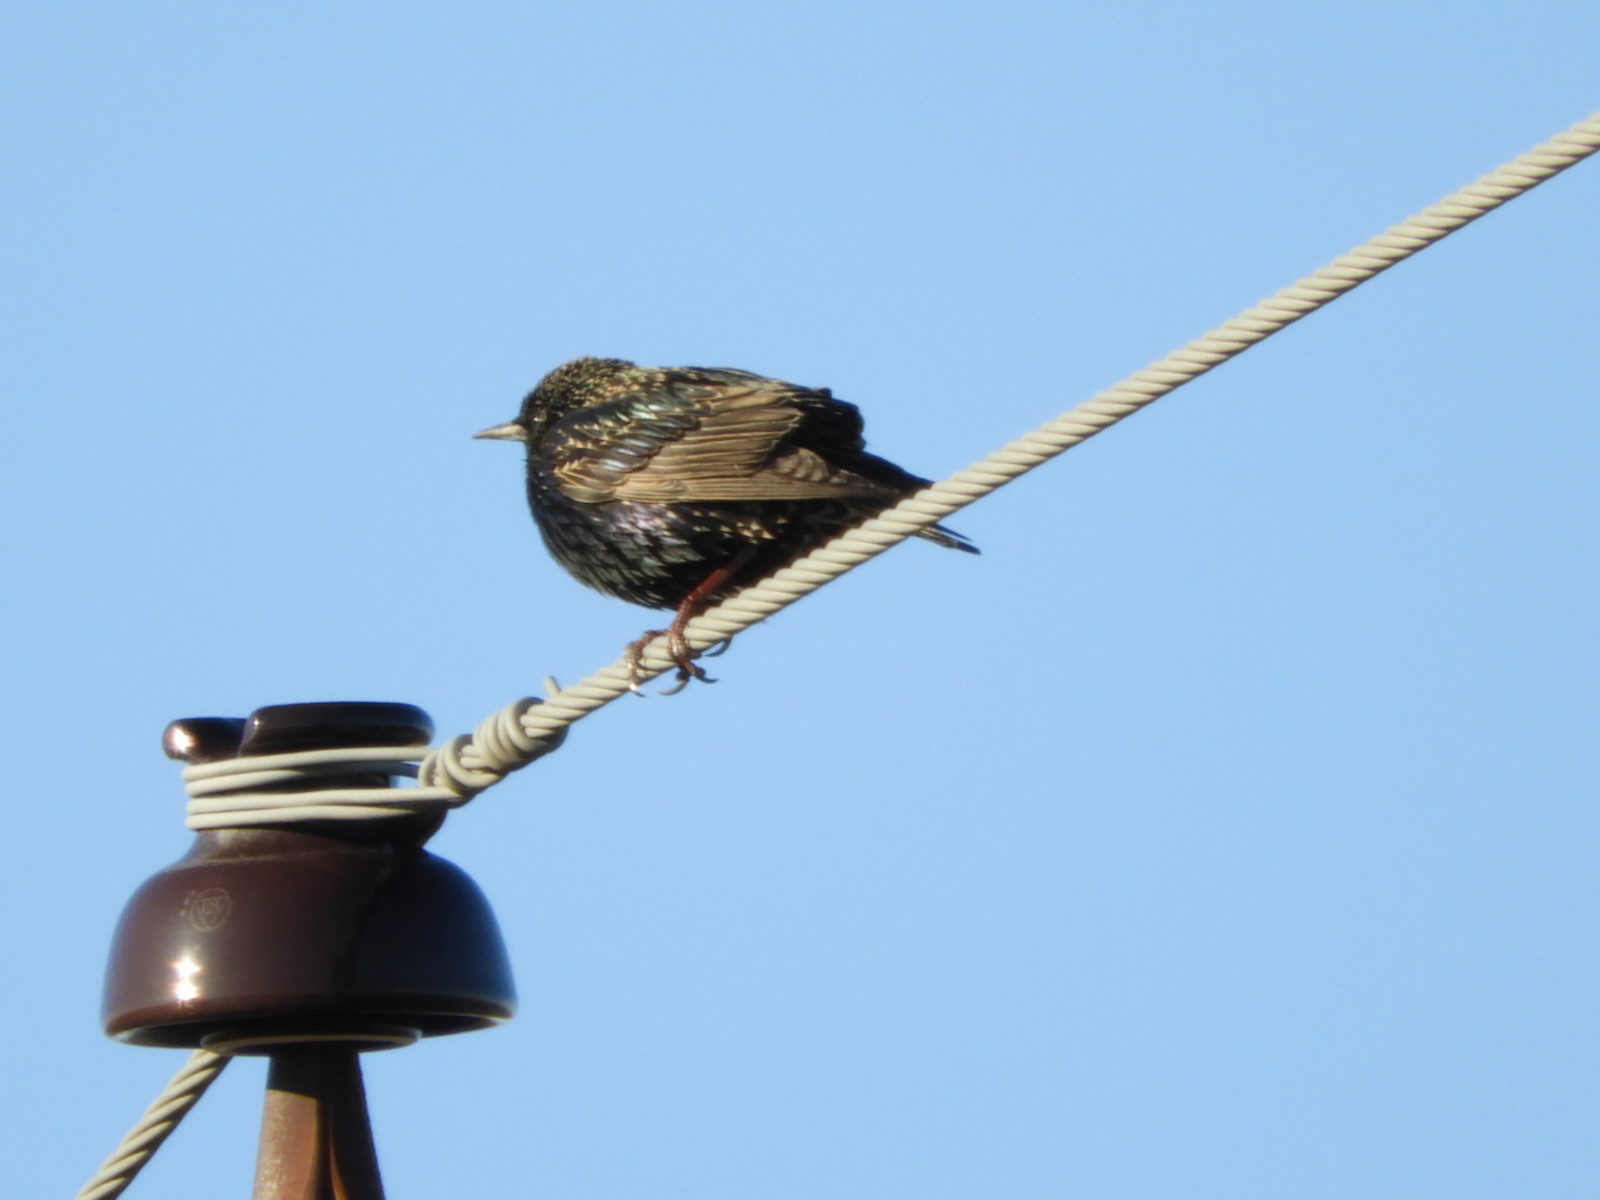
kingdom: Animalia
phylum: Chordata
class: Aves
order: Passeriformes
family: Sturnidae
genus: Sturnus
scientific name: Sturnus vulgaris
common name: Common starling
